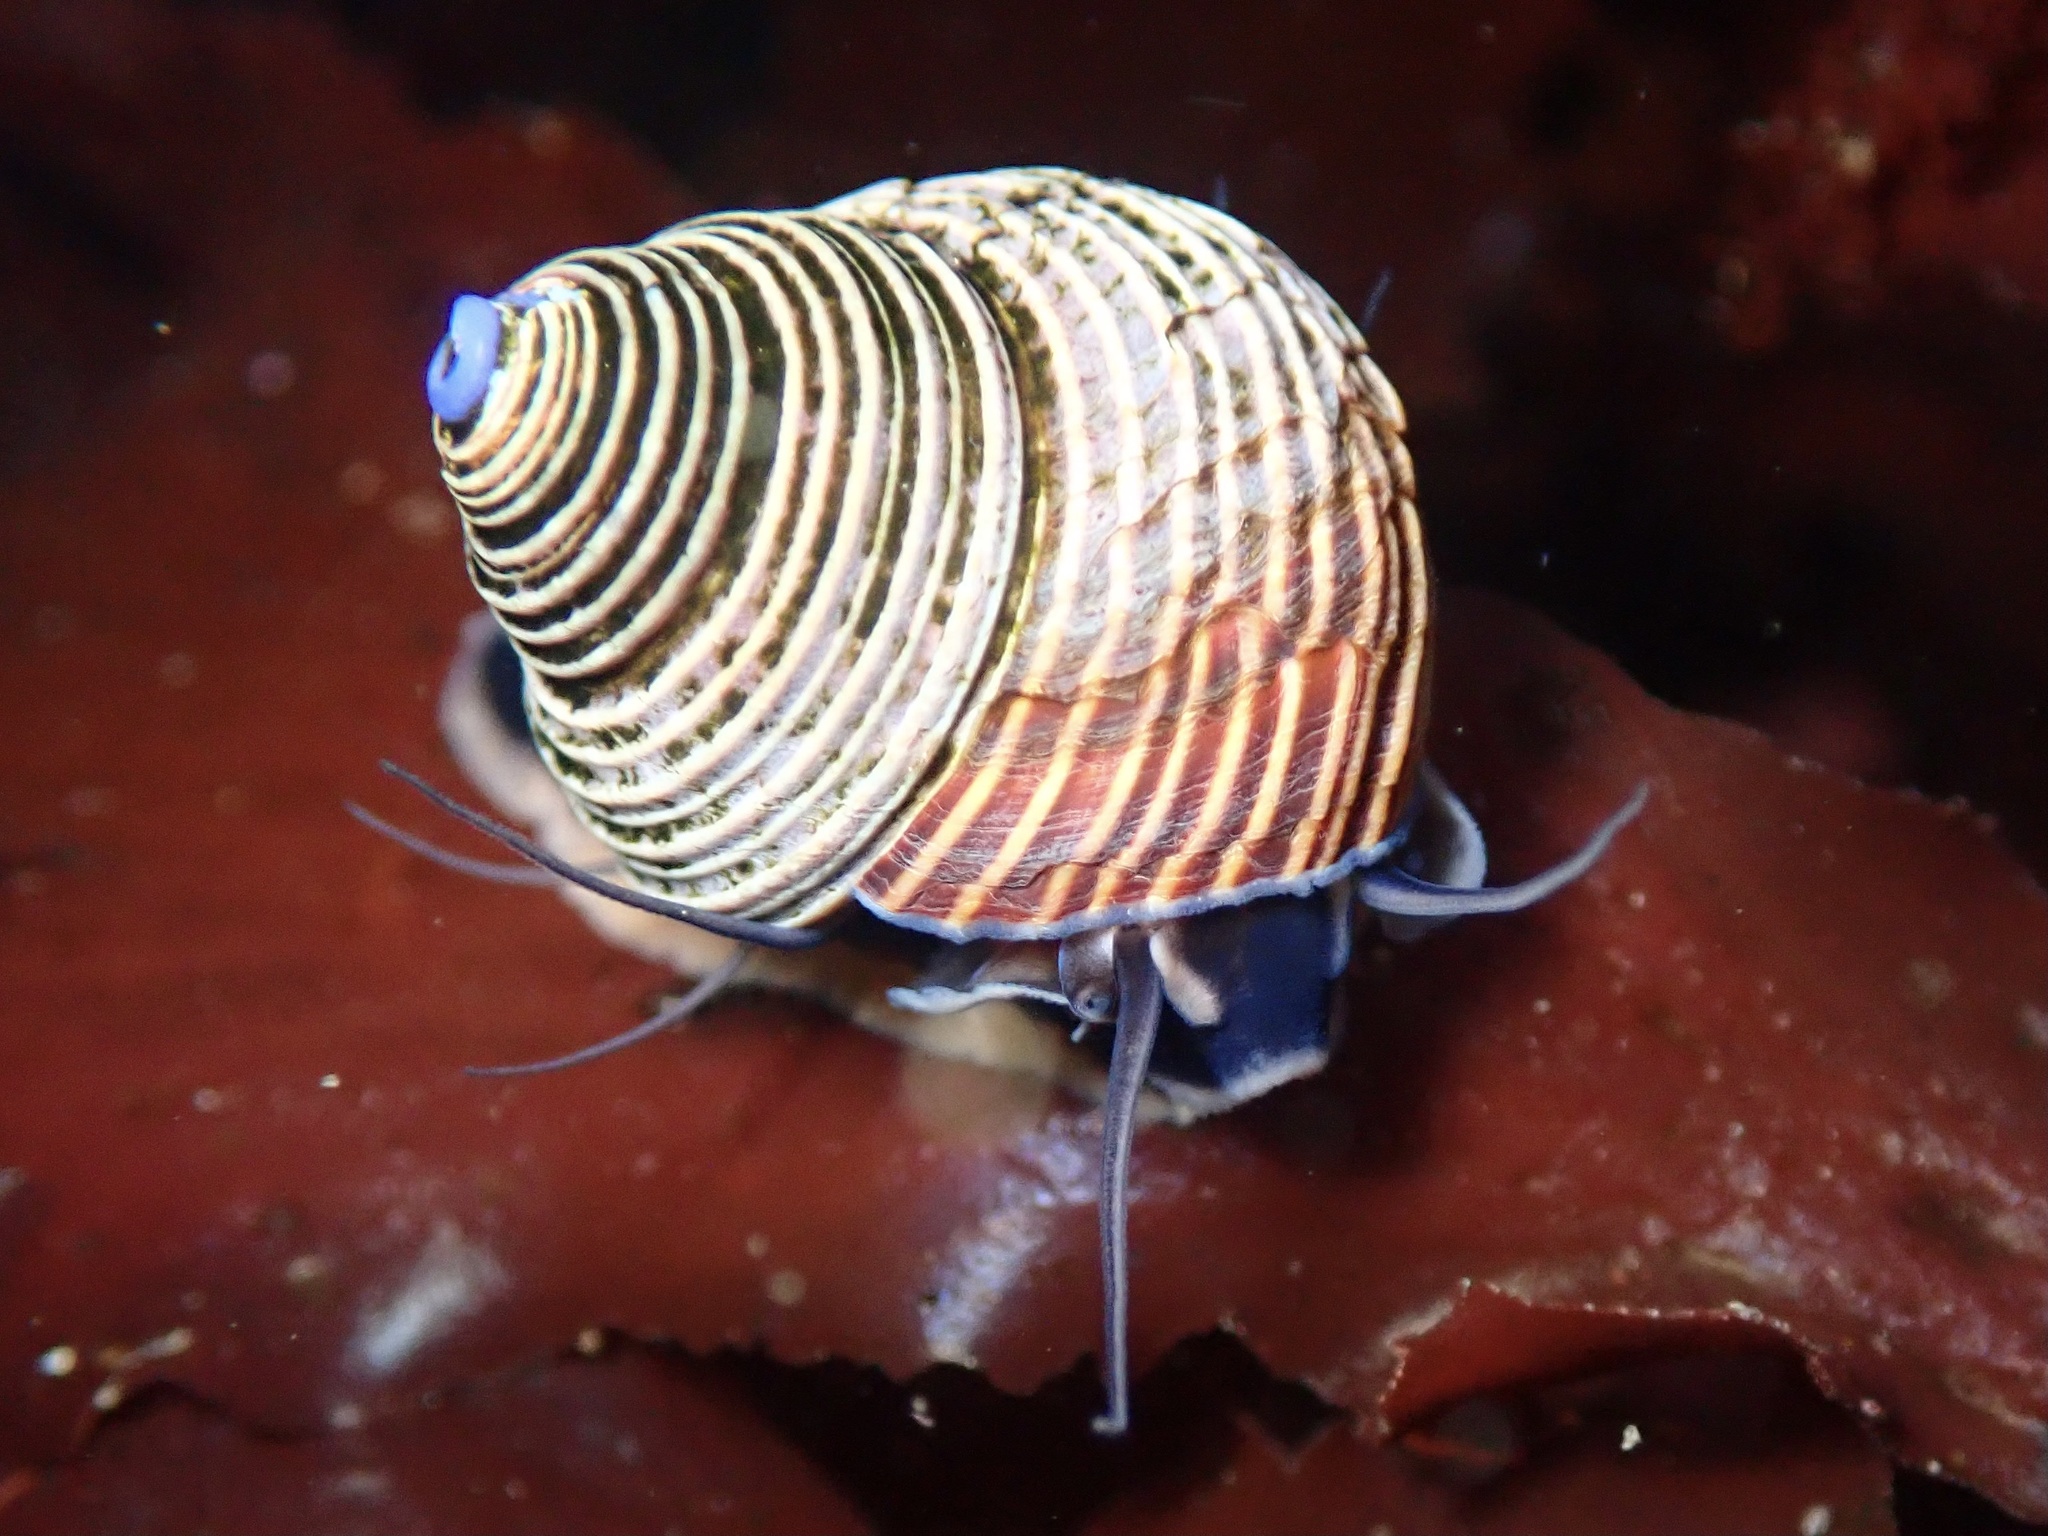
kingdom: Animalia
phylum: Mollusca
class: Gastropoda
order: Trochida
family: Calliostomatidae
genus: Calliostoma
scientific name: Calliostoma ligatum
